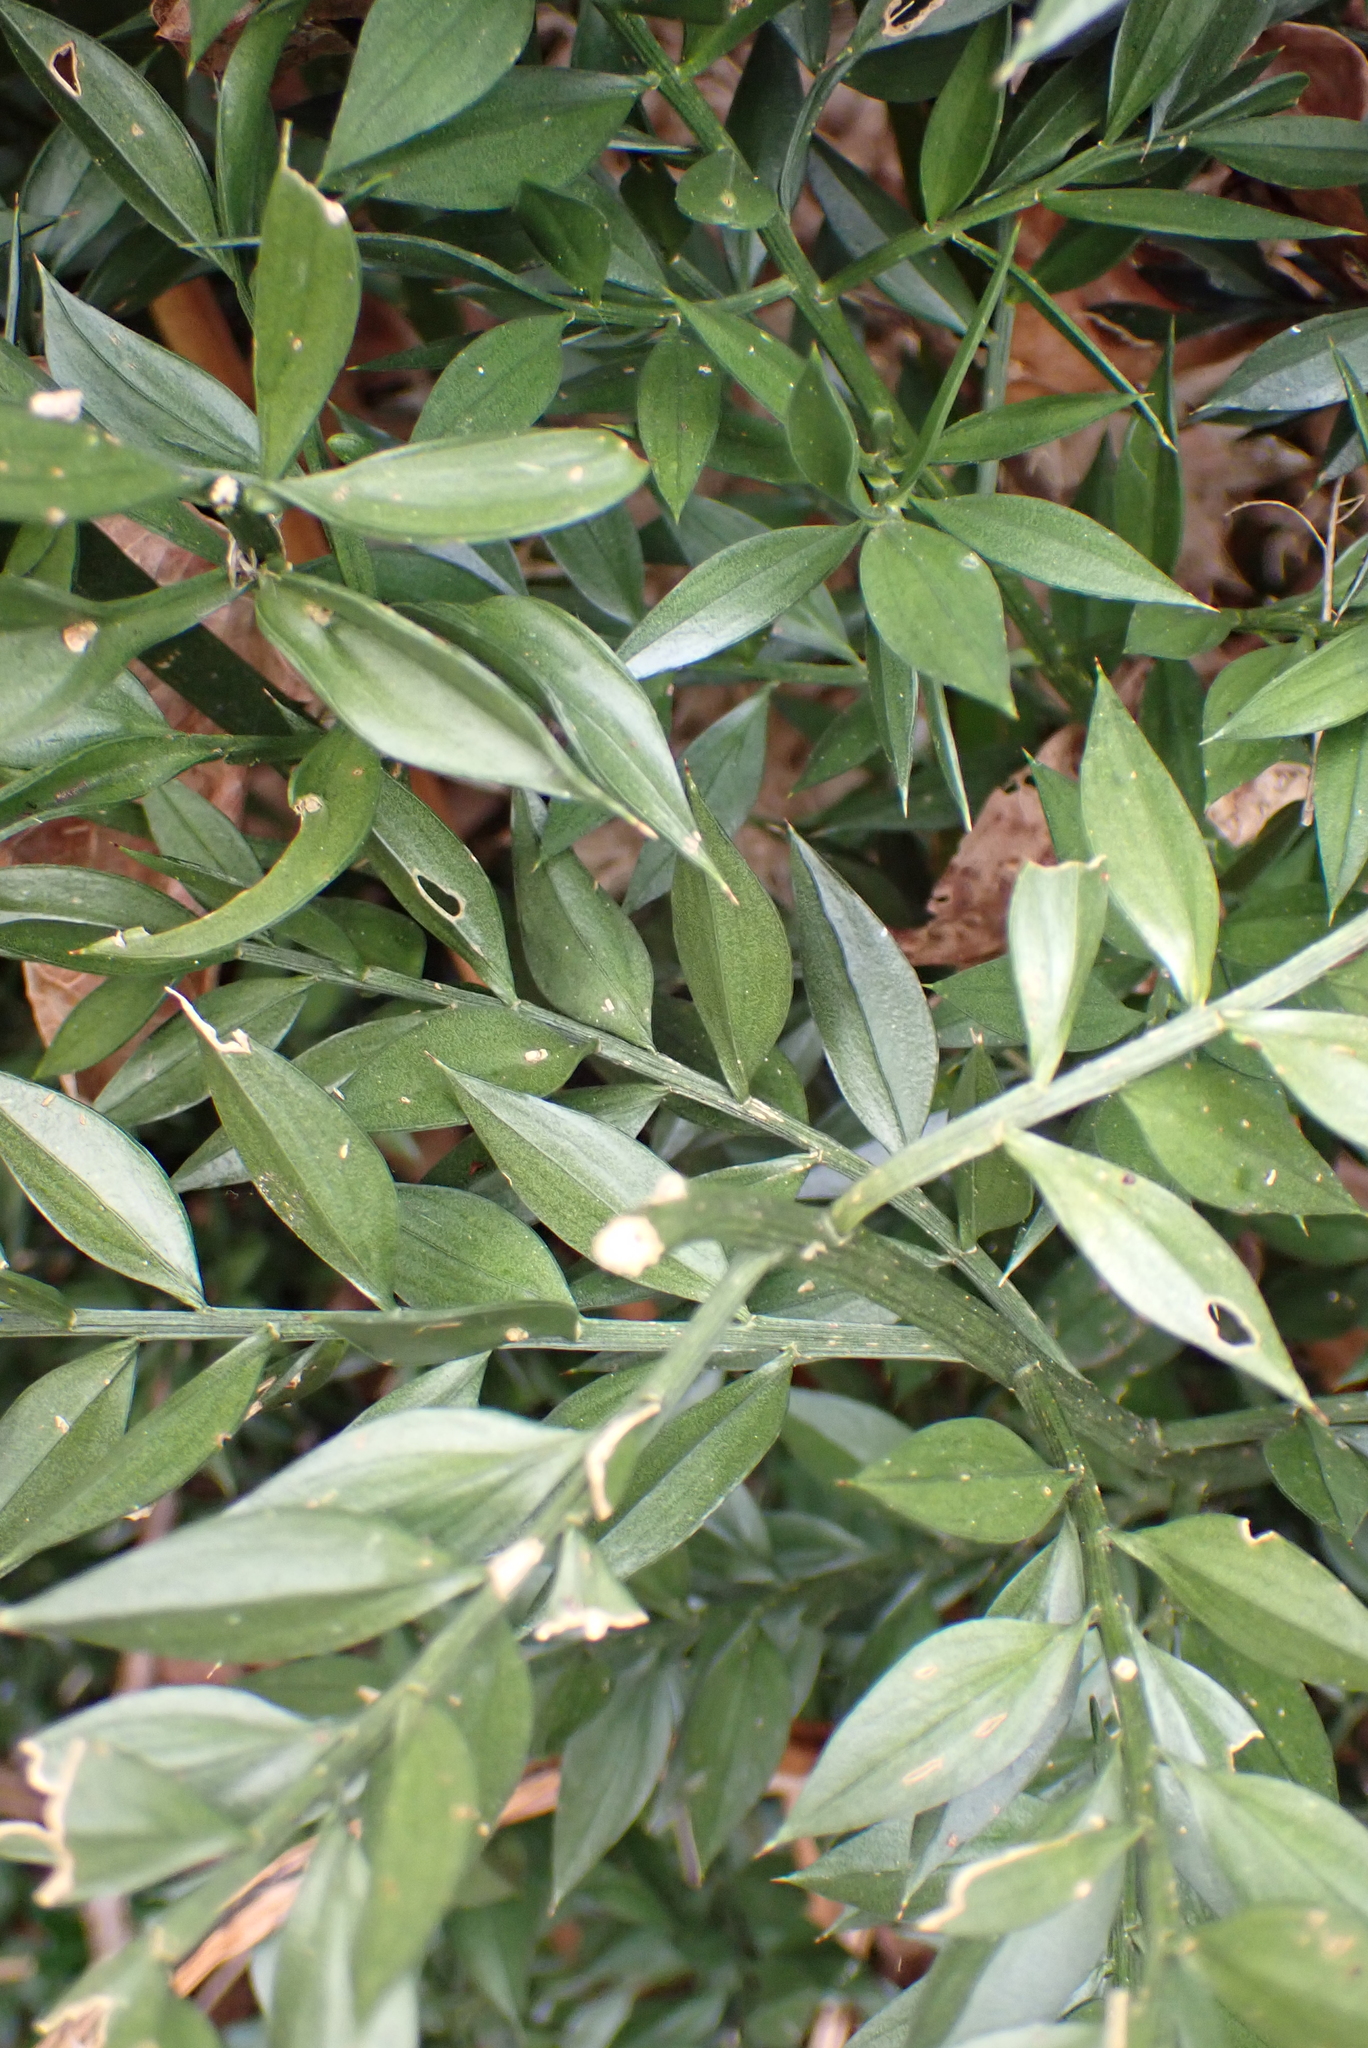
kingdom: Plantae
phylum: Tracheophyta
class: Liliopsida
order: Asparagales
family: Asparagaceae
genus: Ruscus
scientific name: Ruscus aculeatus
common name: Butcher's-broom
